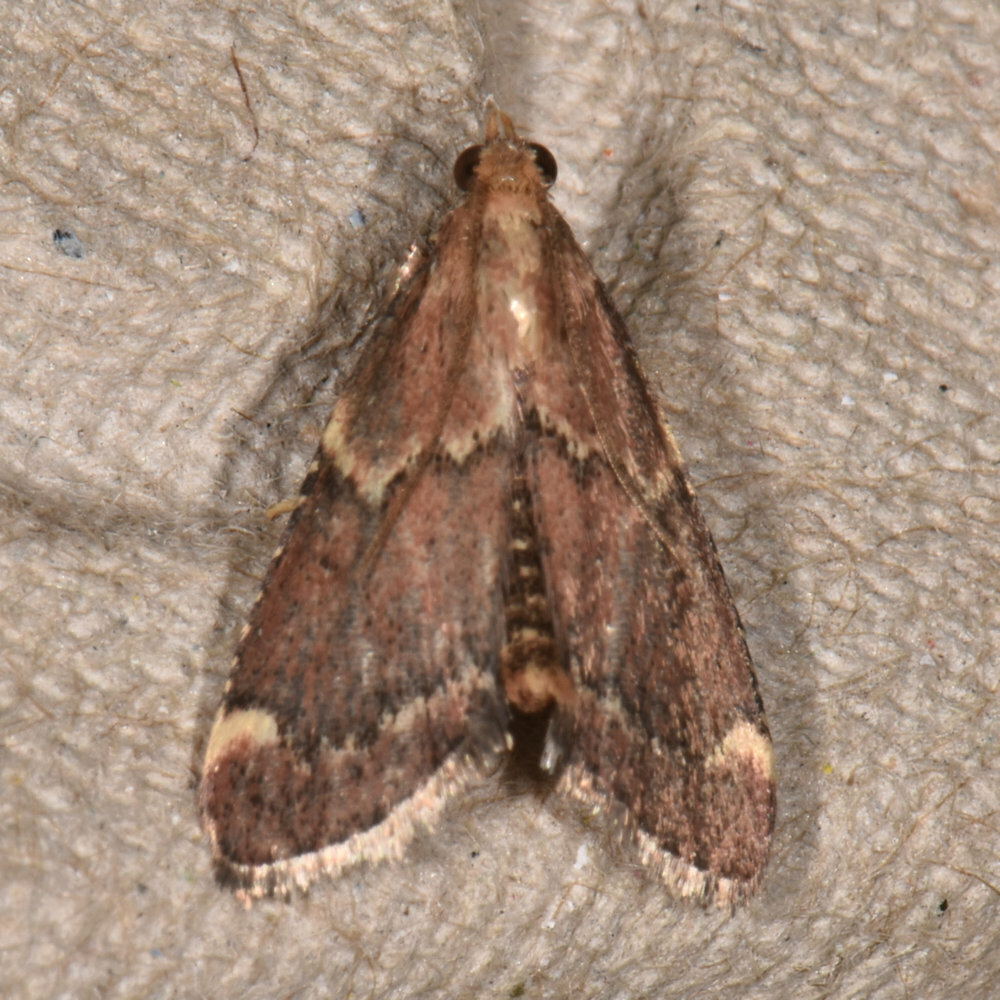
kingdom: Animalia
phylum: Arthropoda
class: Insecta
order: Lepidoptera
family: Pyralidae
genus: Hypsopygia
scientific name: Hypsopygia intermedialis
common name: Red-shawled moth
